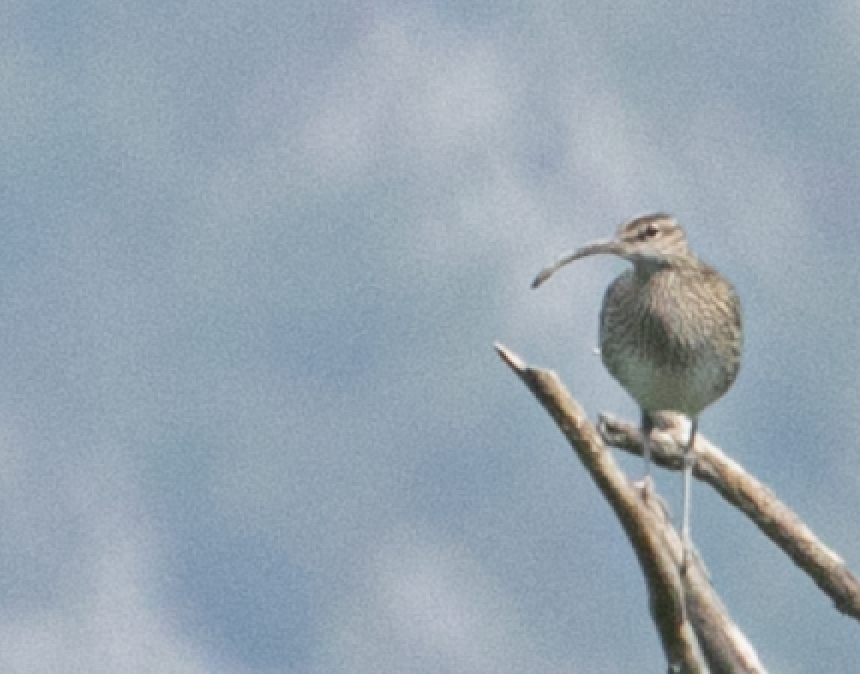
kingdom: Animalia
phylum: Chordata
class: Aves
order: Charadriiformes
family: Scolopacidae
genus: Numenius
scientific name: Numenius phaeopus
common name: Whimbrel
